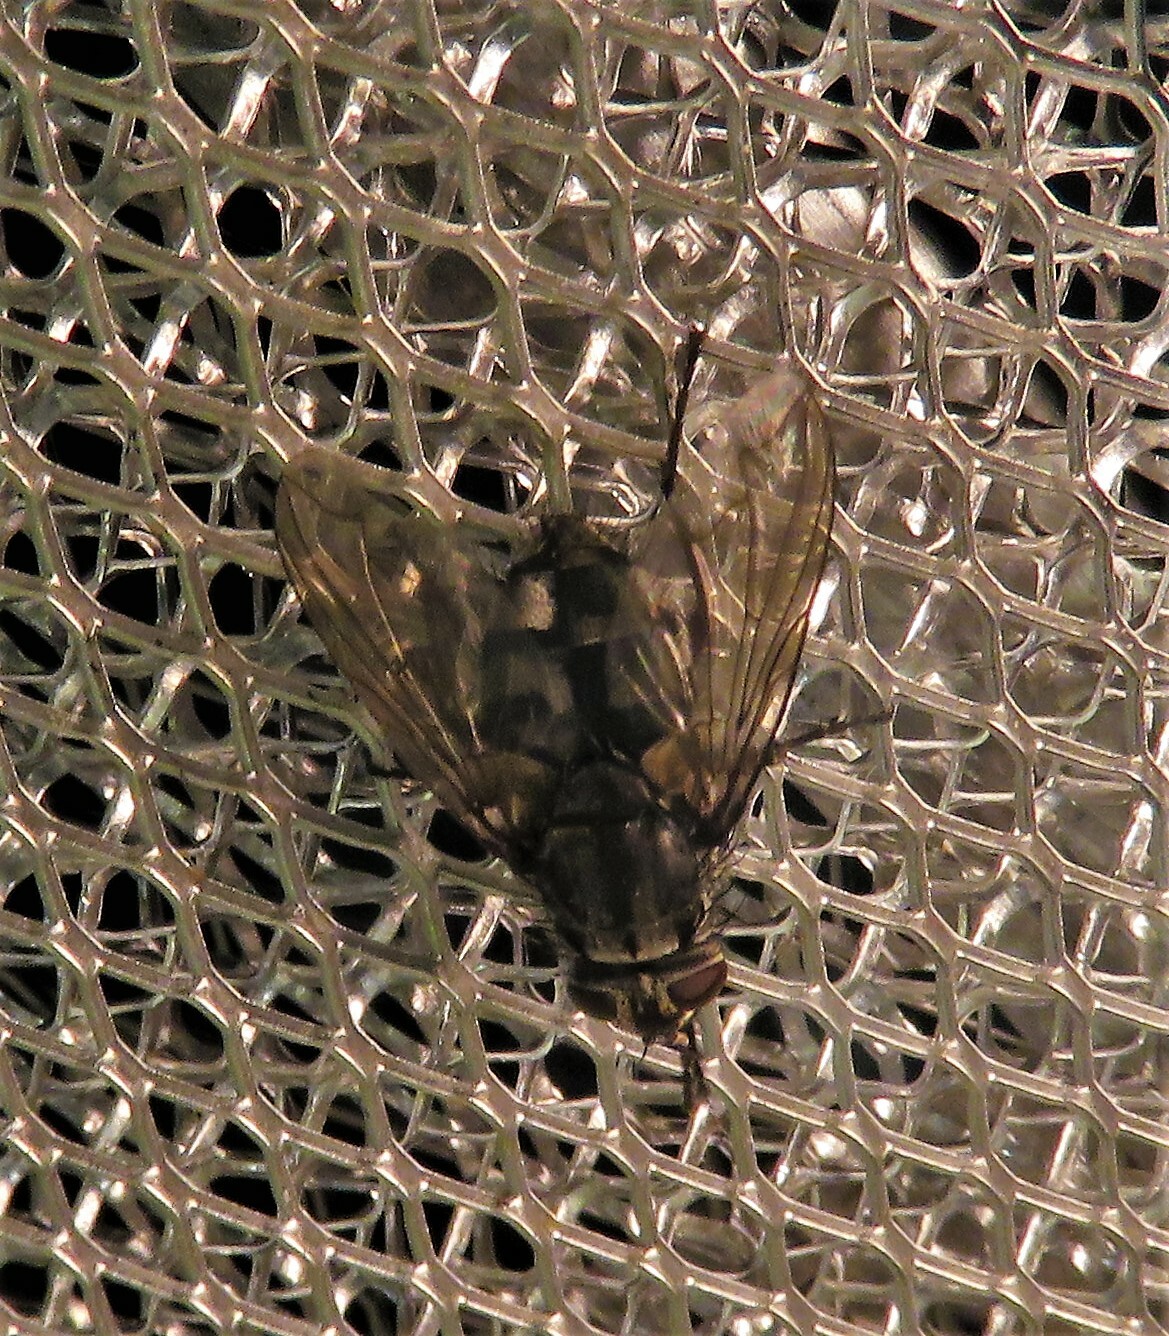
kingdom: Animalia
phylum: Arthropoda
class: Insecta
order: Diptera
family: Polleniidae
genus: Pollenia
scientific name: Pollenia vagabunda
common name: Vagabund cluster fly
